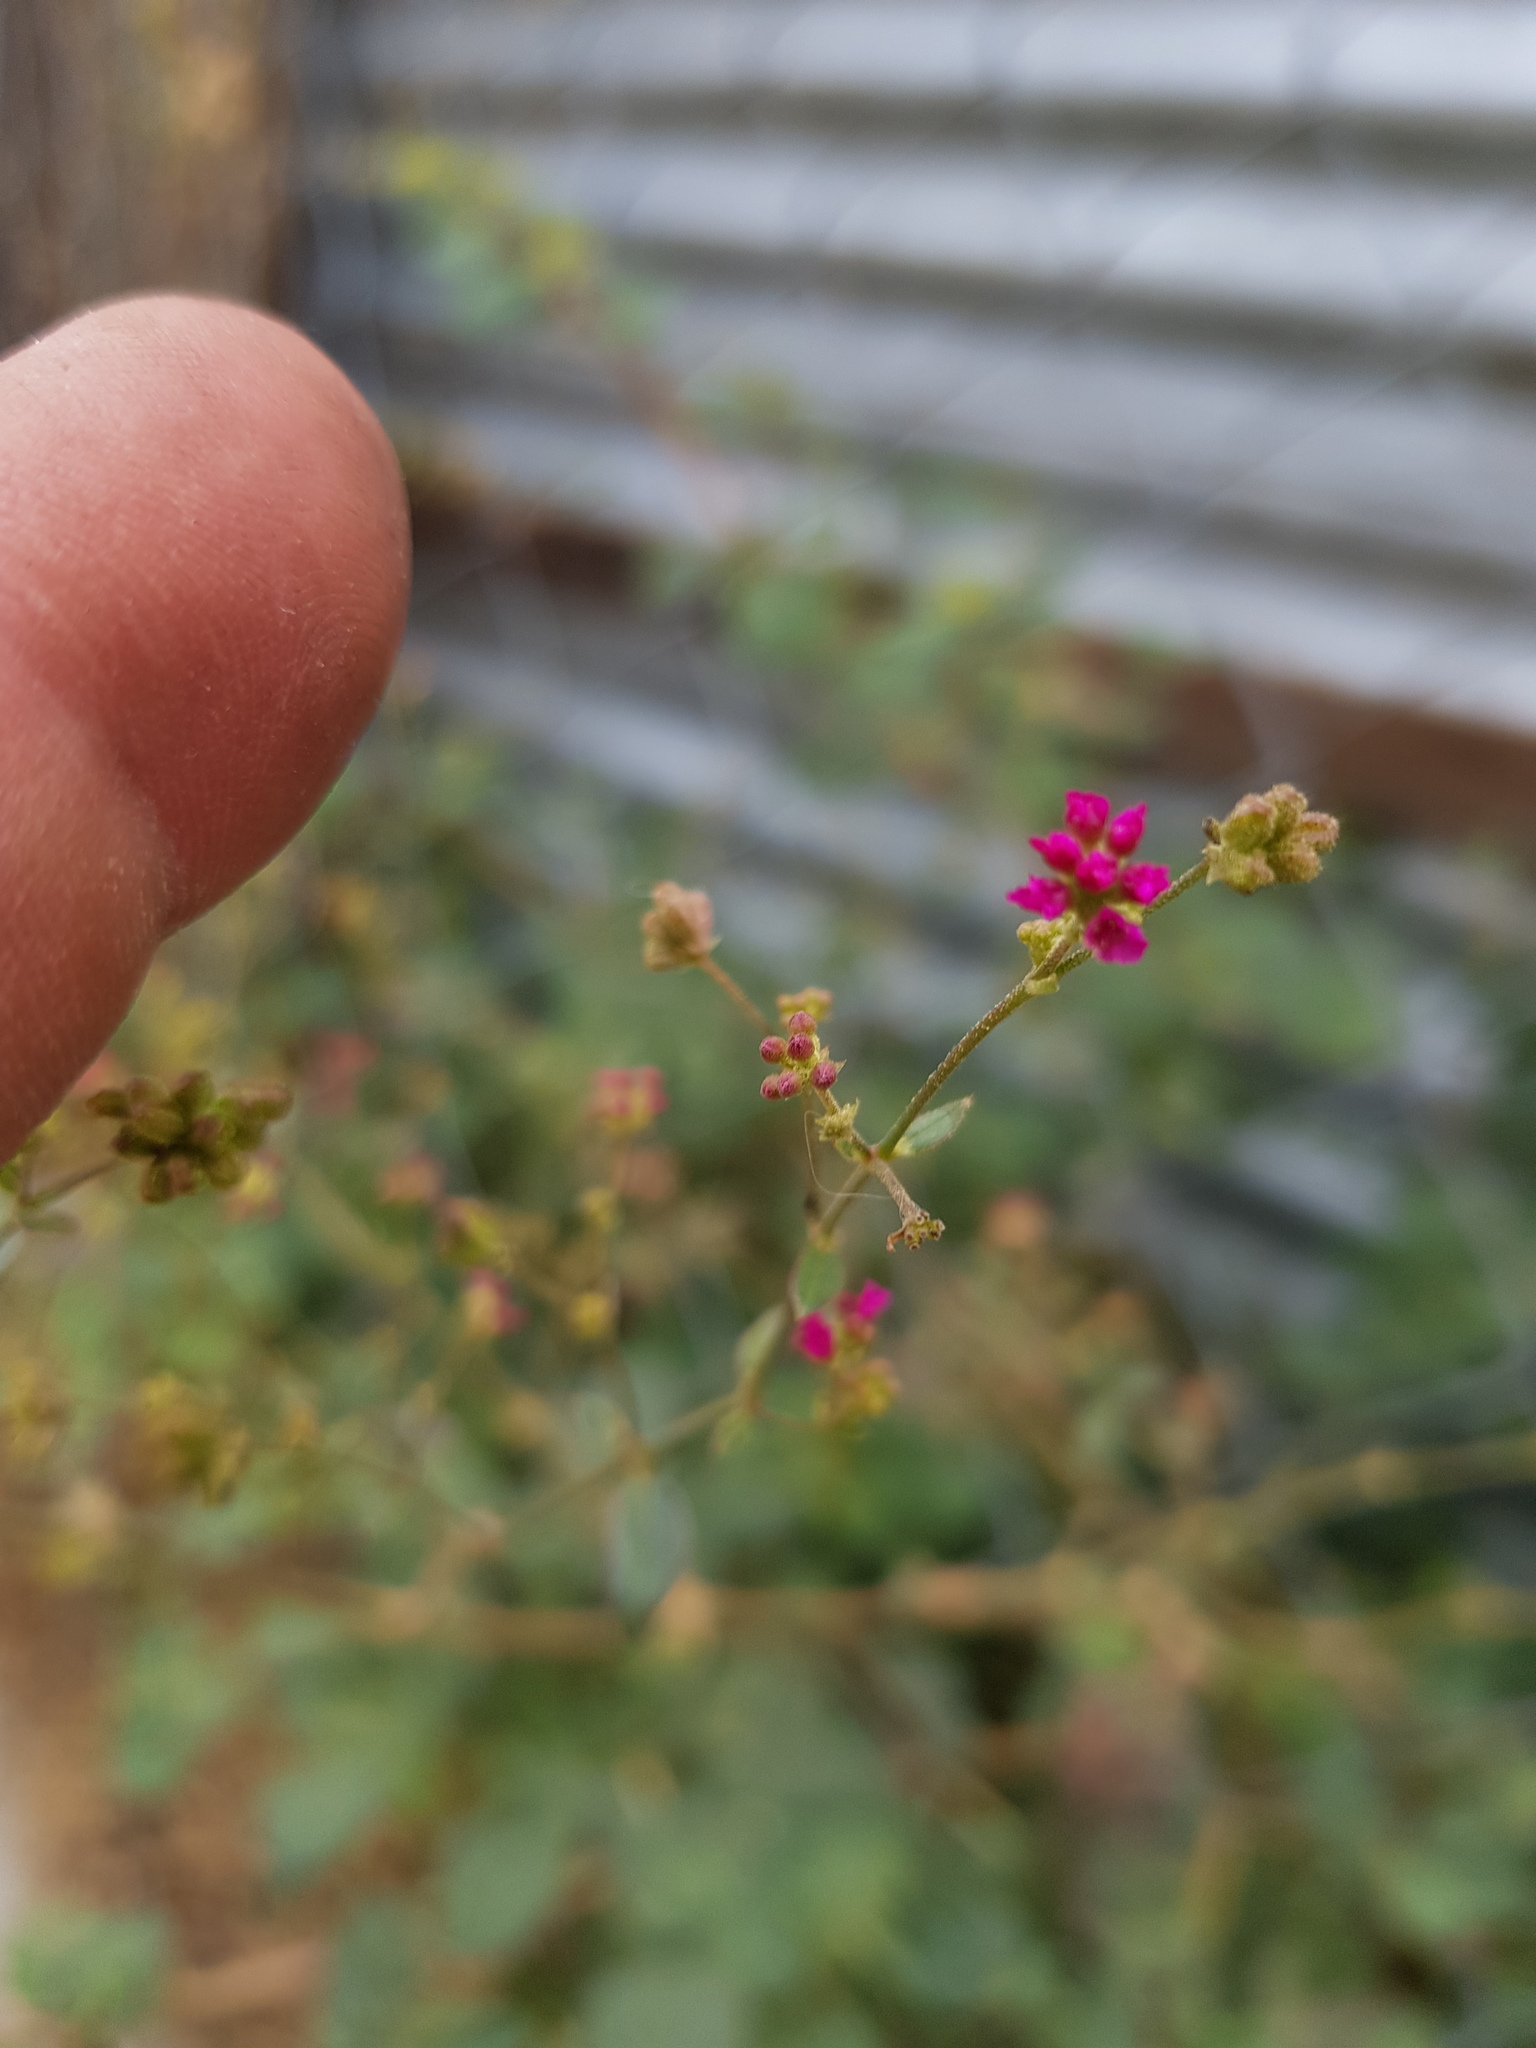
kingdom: Plantae
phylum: Tracheophyta
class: Magnoliopsida
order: Caryophyllales
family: Nyctaginaceae
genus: Boerhavia
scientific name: Boerhavia coccinea
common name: Scarlet spiderling
